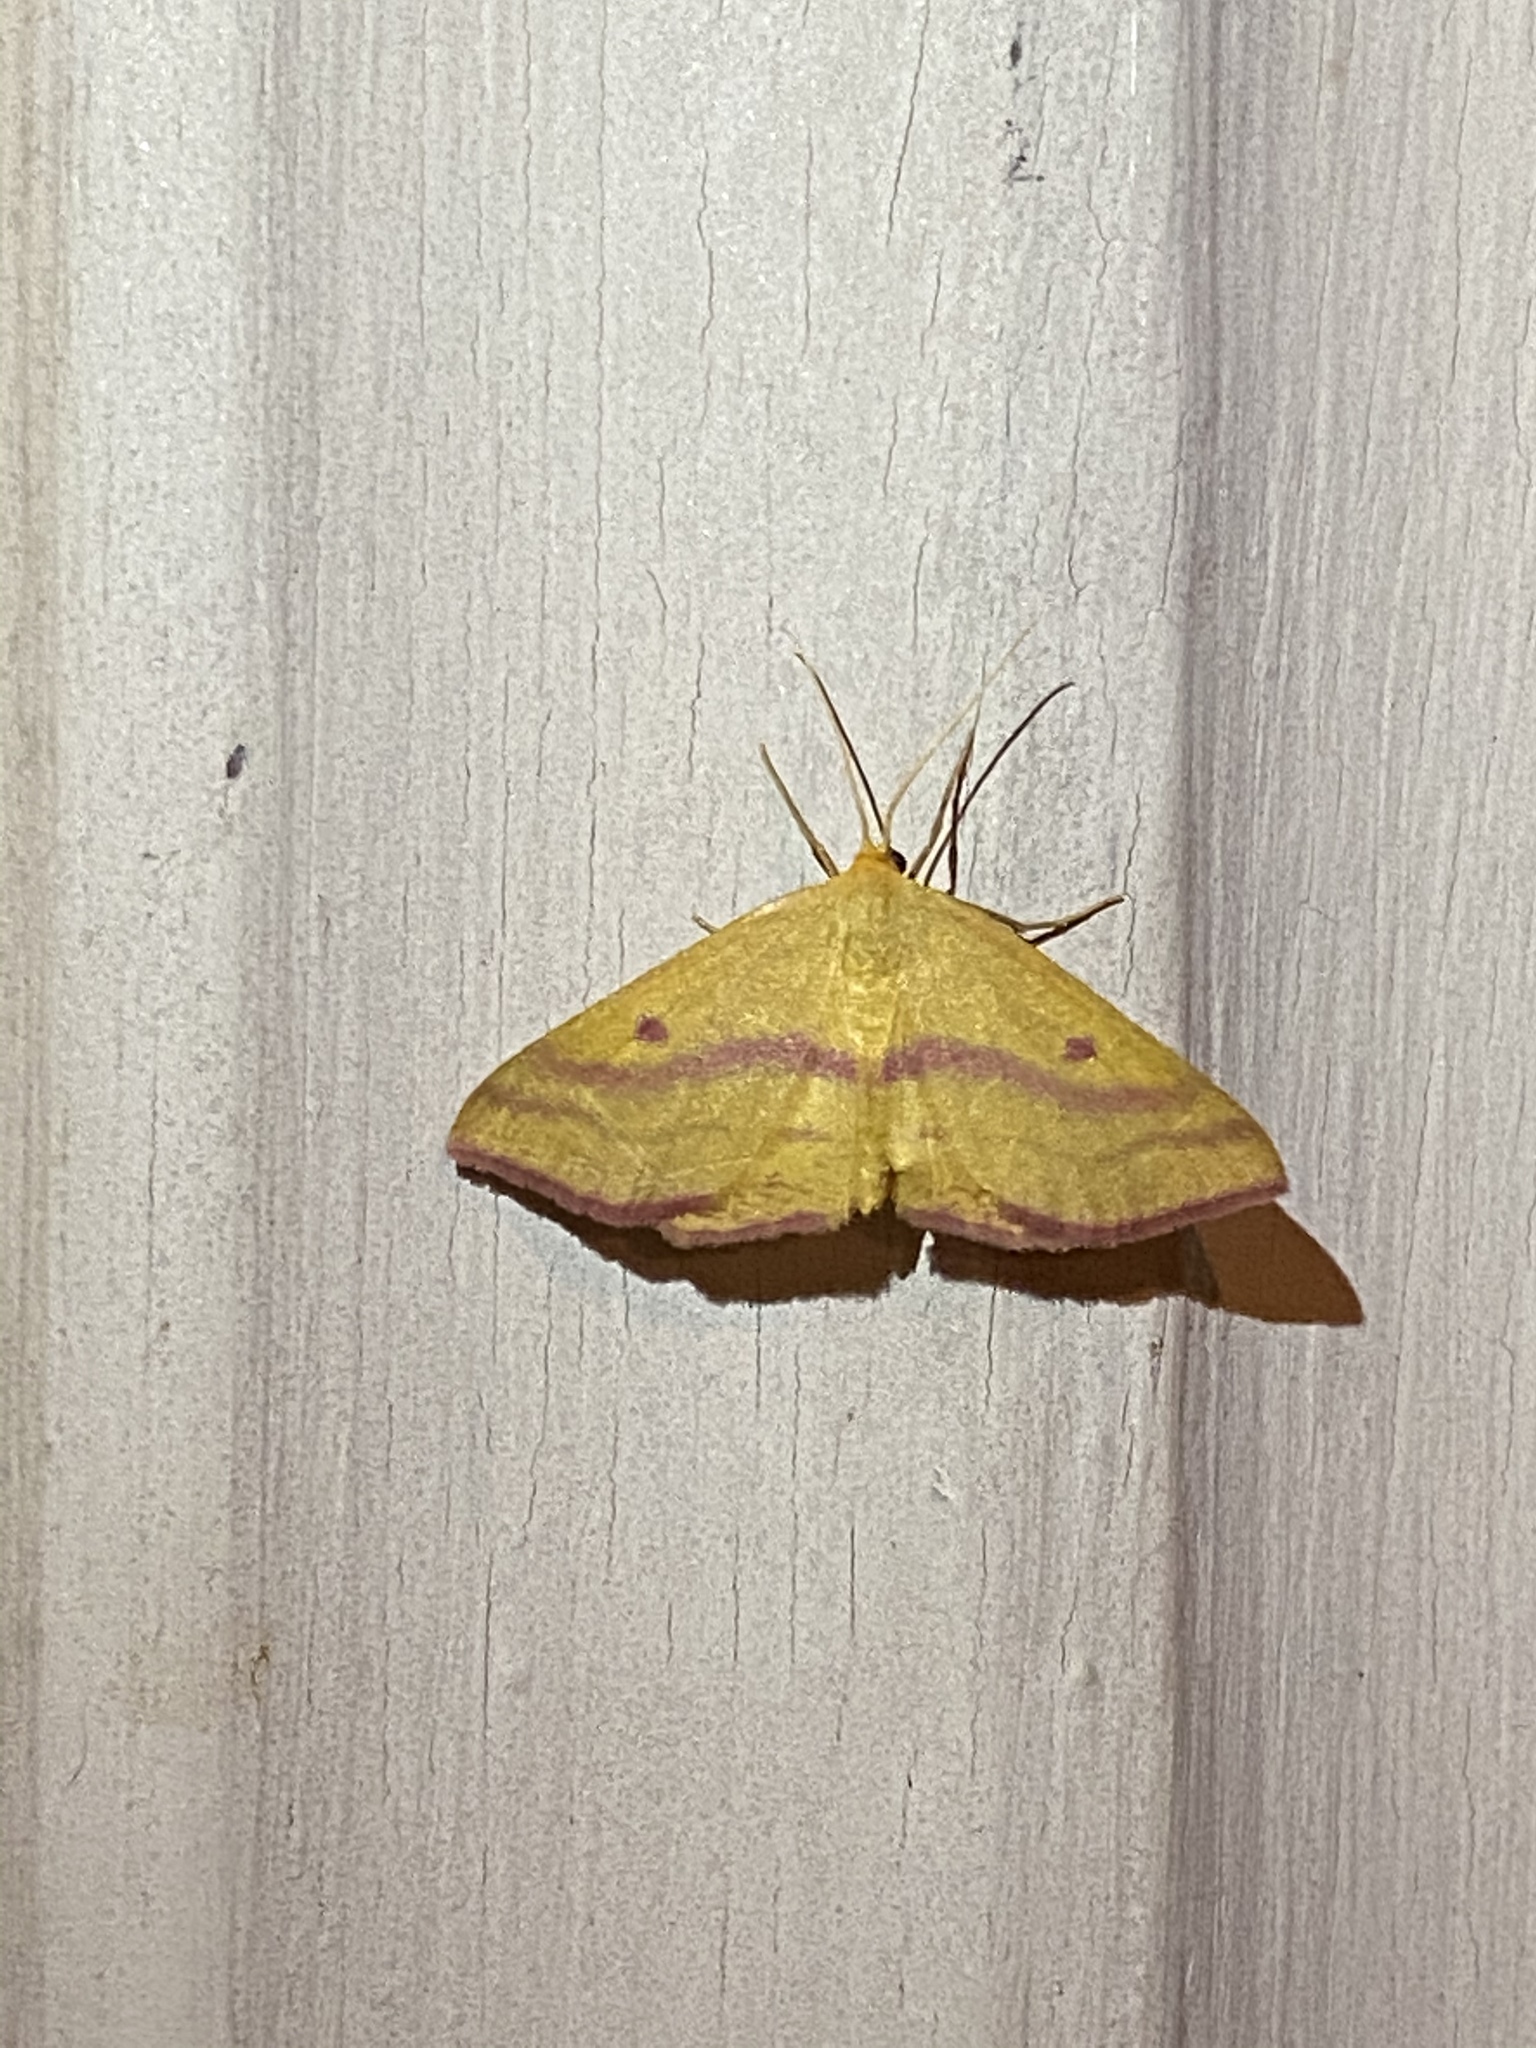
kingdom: Animalia
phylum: Arthropoda
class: Insecta
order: Lepidoptera
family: Geometridae
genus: Haematopis
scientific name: Haematopis grataria
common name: Chickweed geometer
